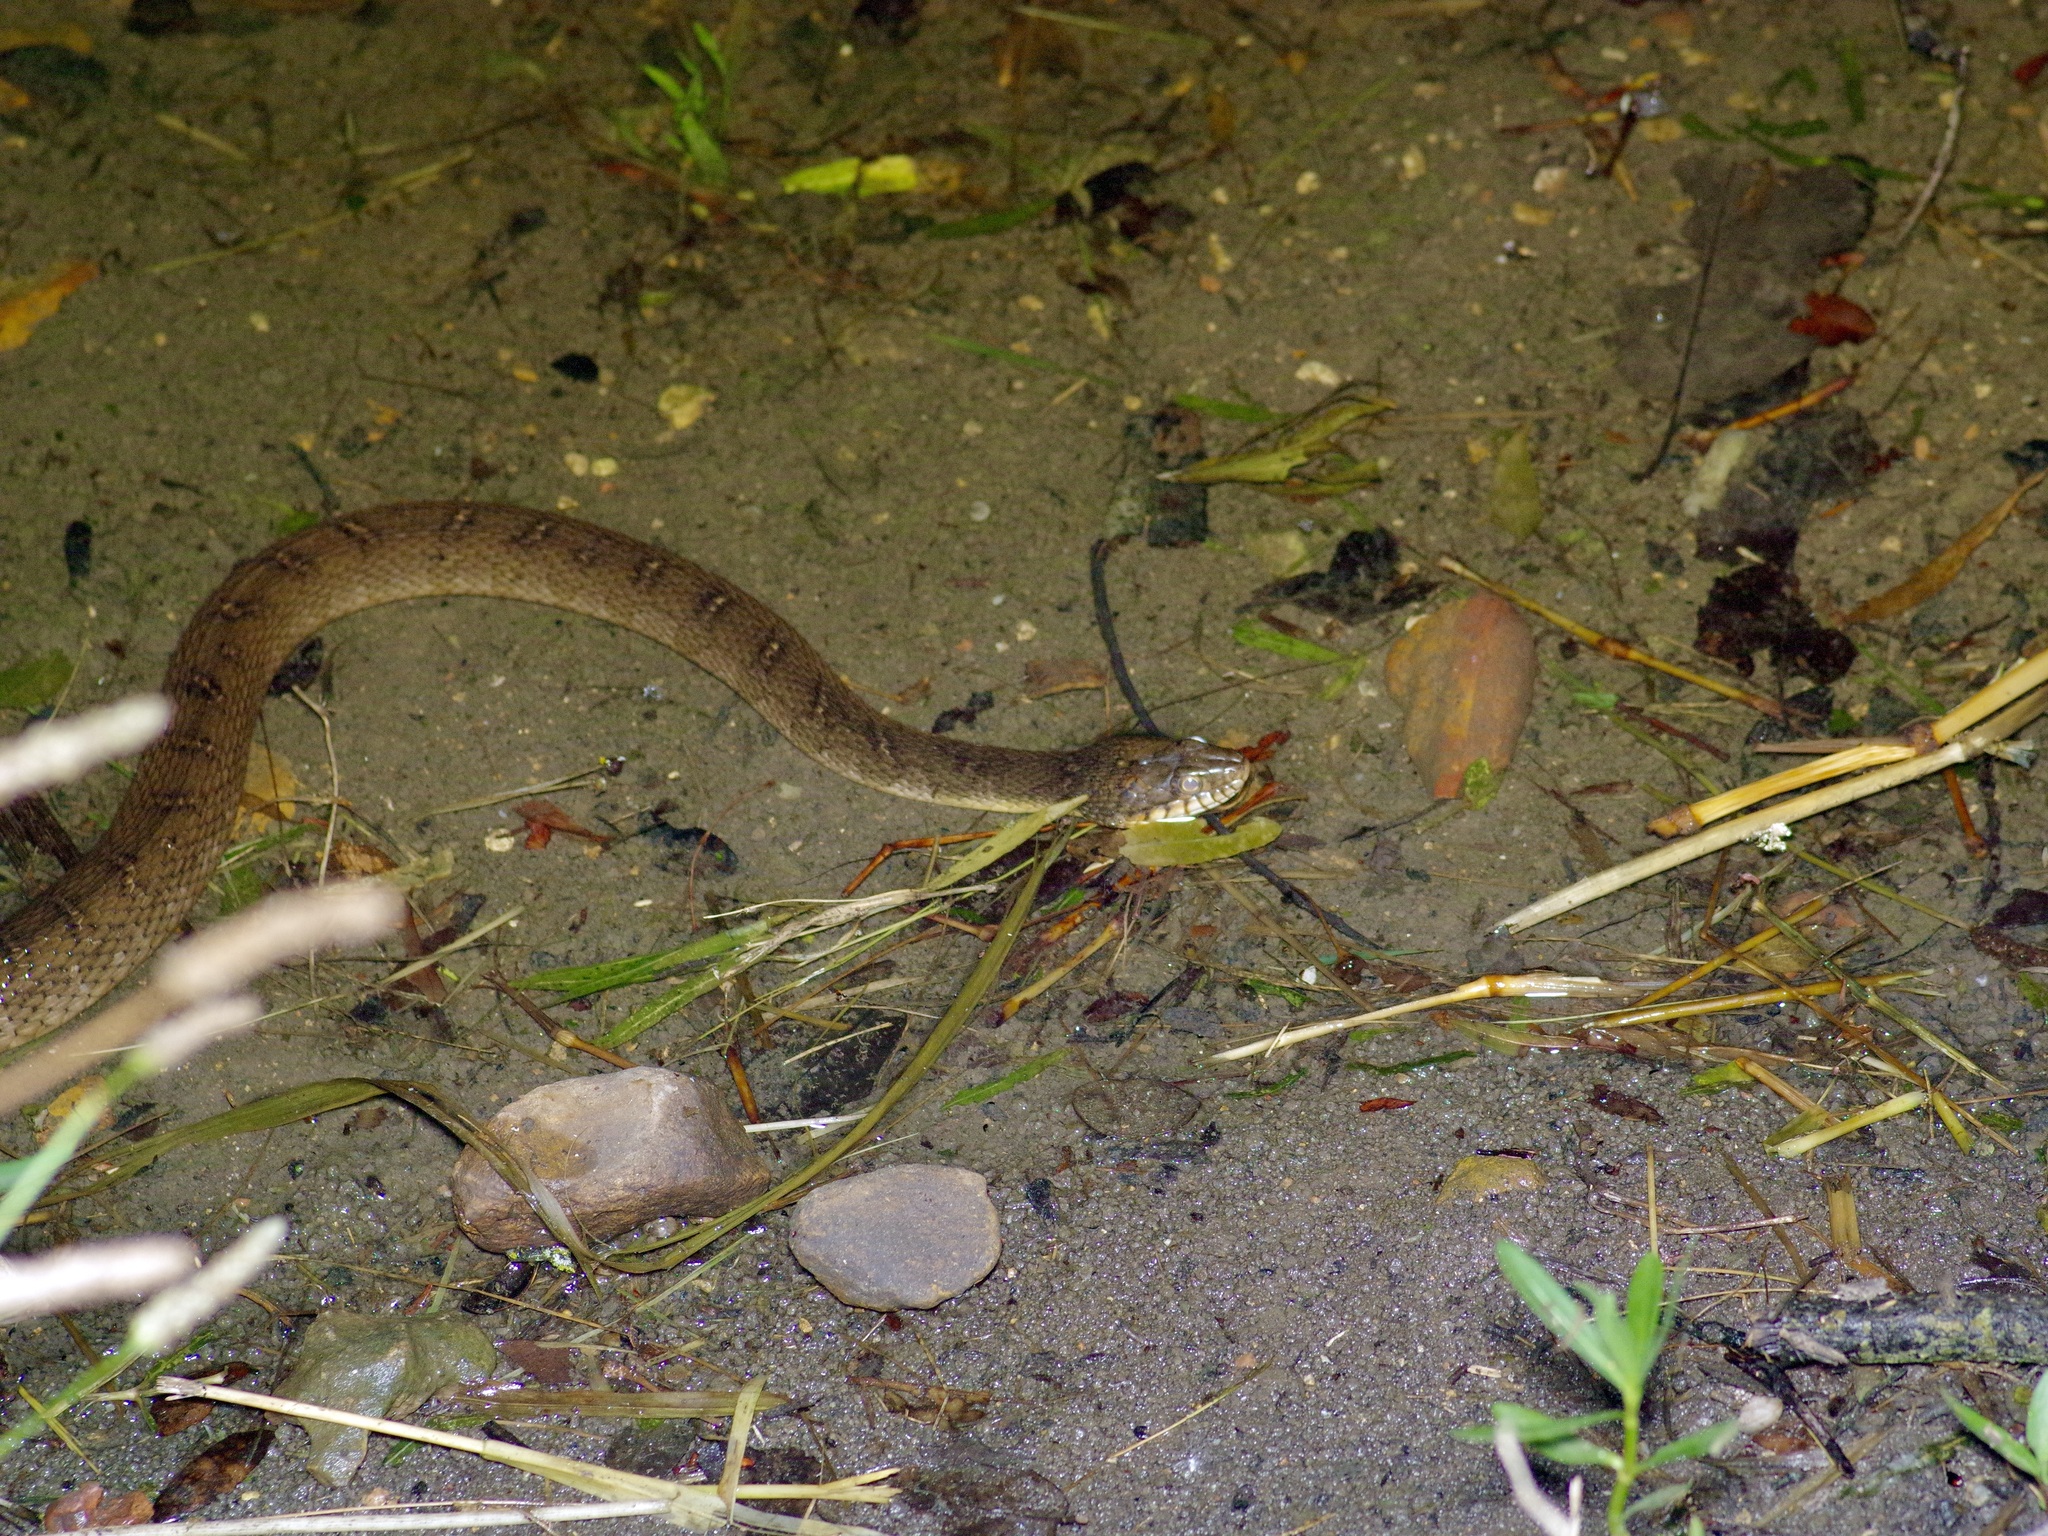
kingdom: Animalia
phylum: Chordata
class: Squamata
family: Colubridae
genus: Nerodia
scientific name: Nerodia erythrogaster
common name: Plainbelly water snake
